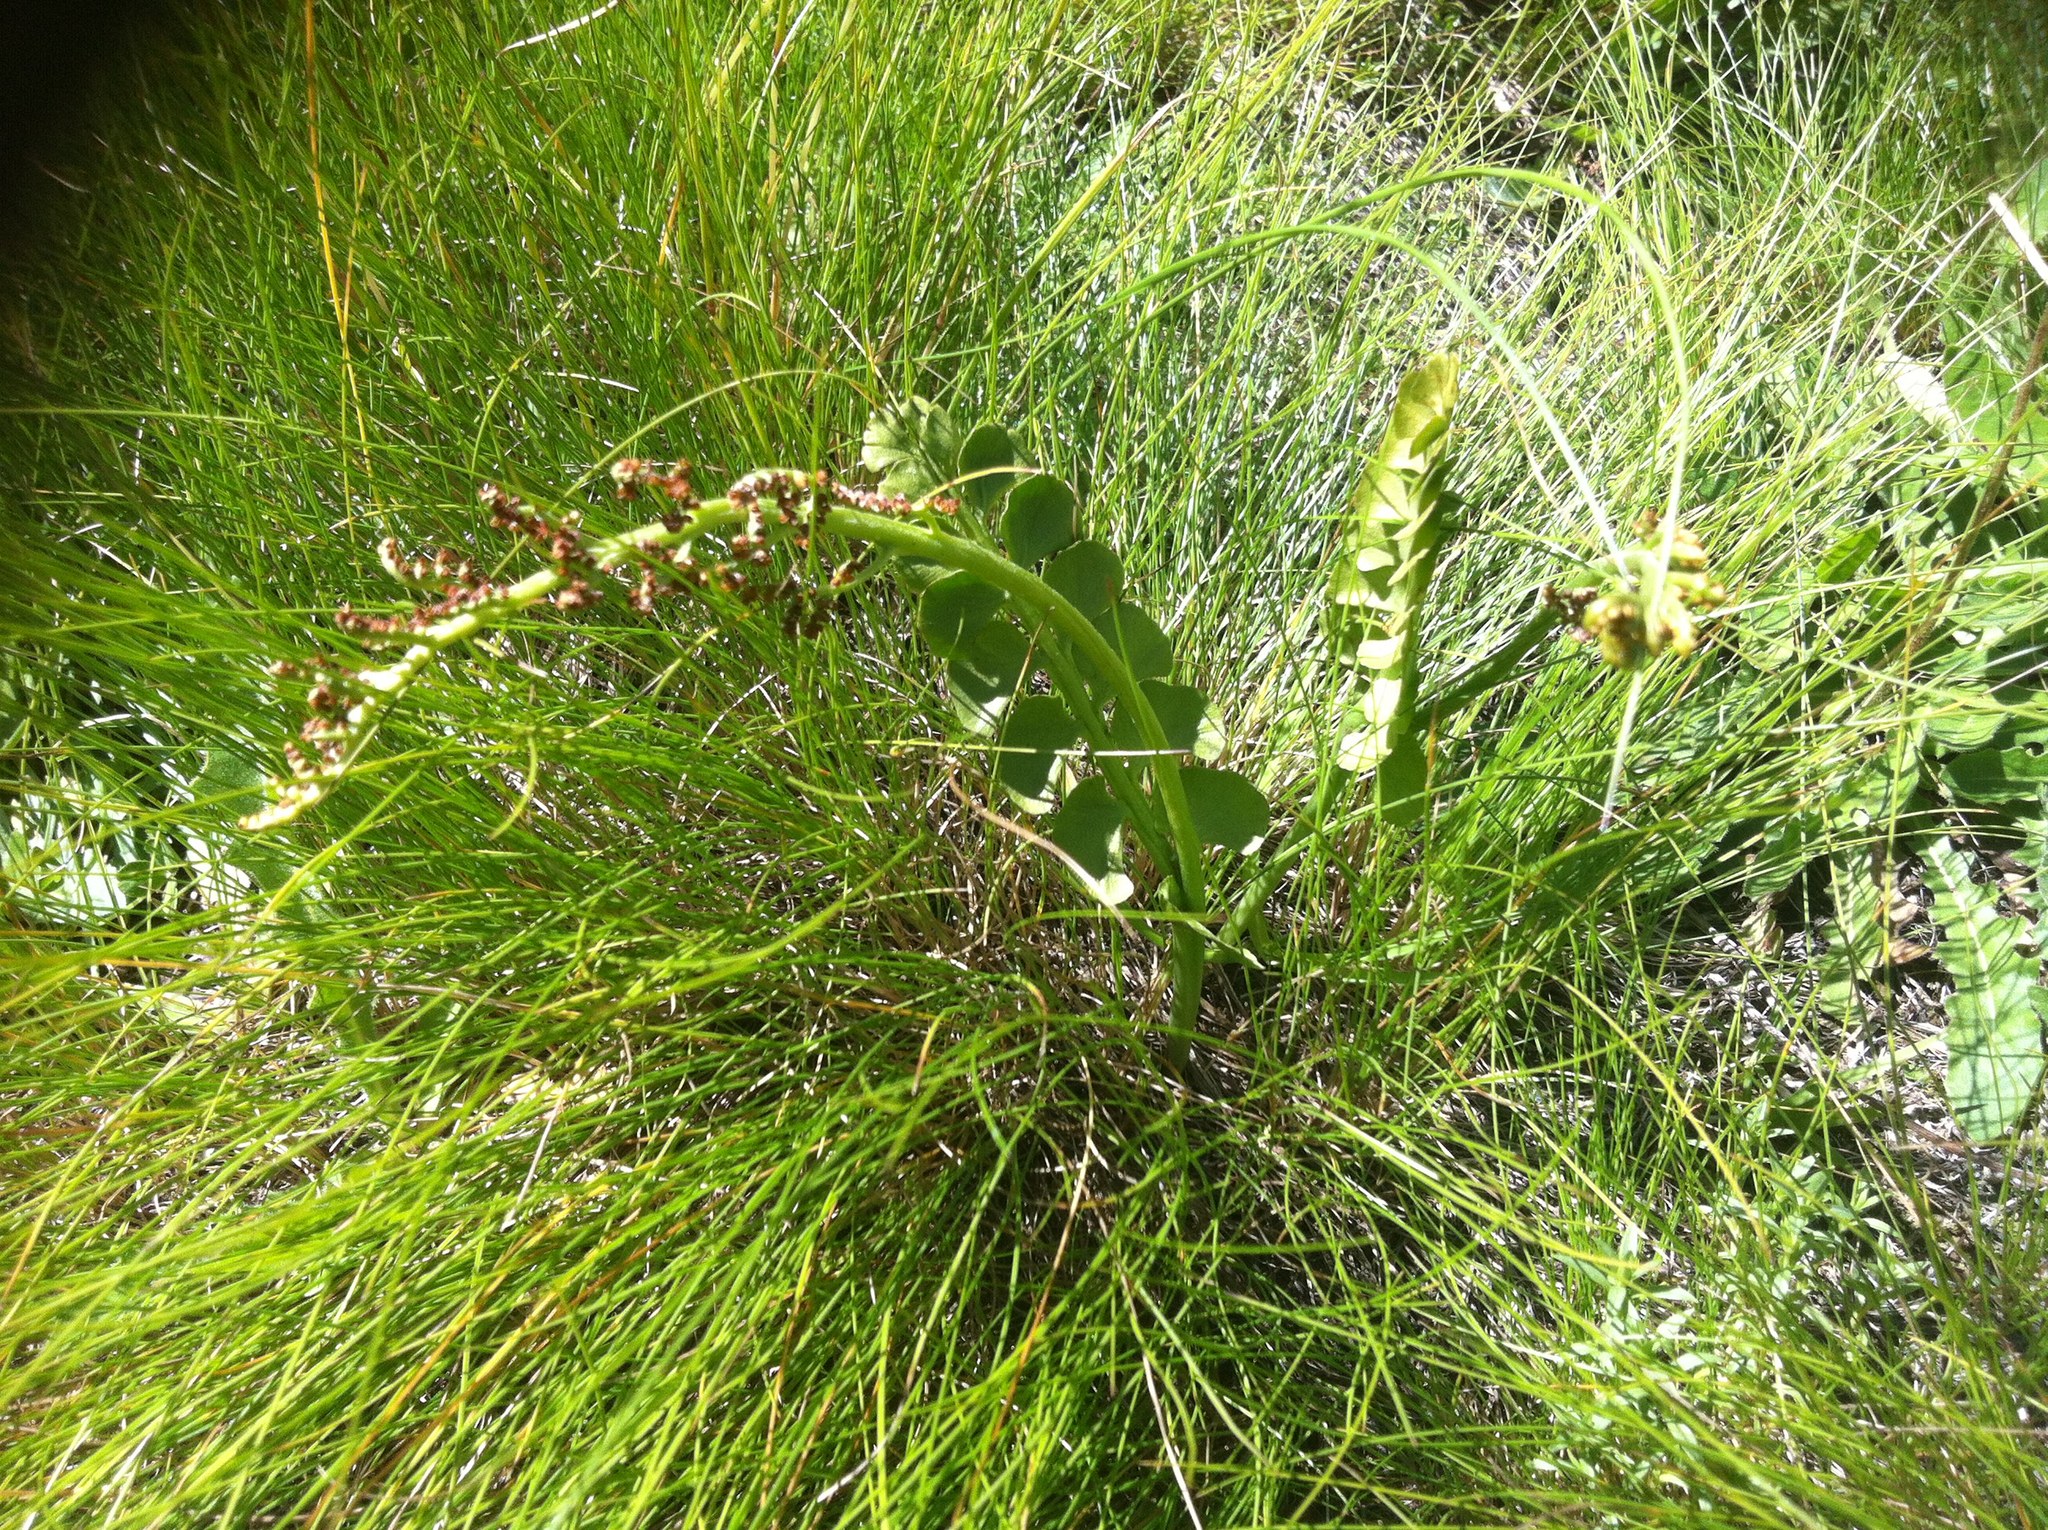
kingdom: Plantae
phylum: Tracheophyta
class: Polypodiopsida
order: Ophioglossales
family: Ophioglossaceae
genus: Botrychium
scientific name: Botrychium lunaria
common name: Moonwort
